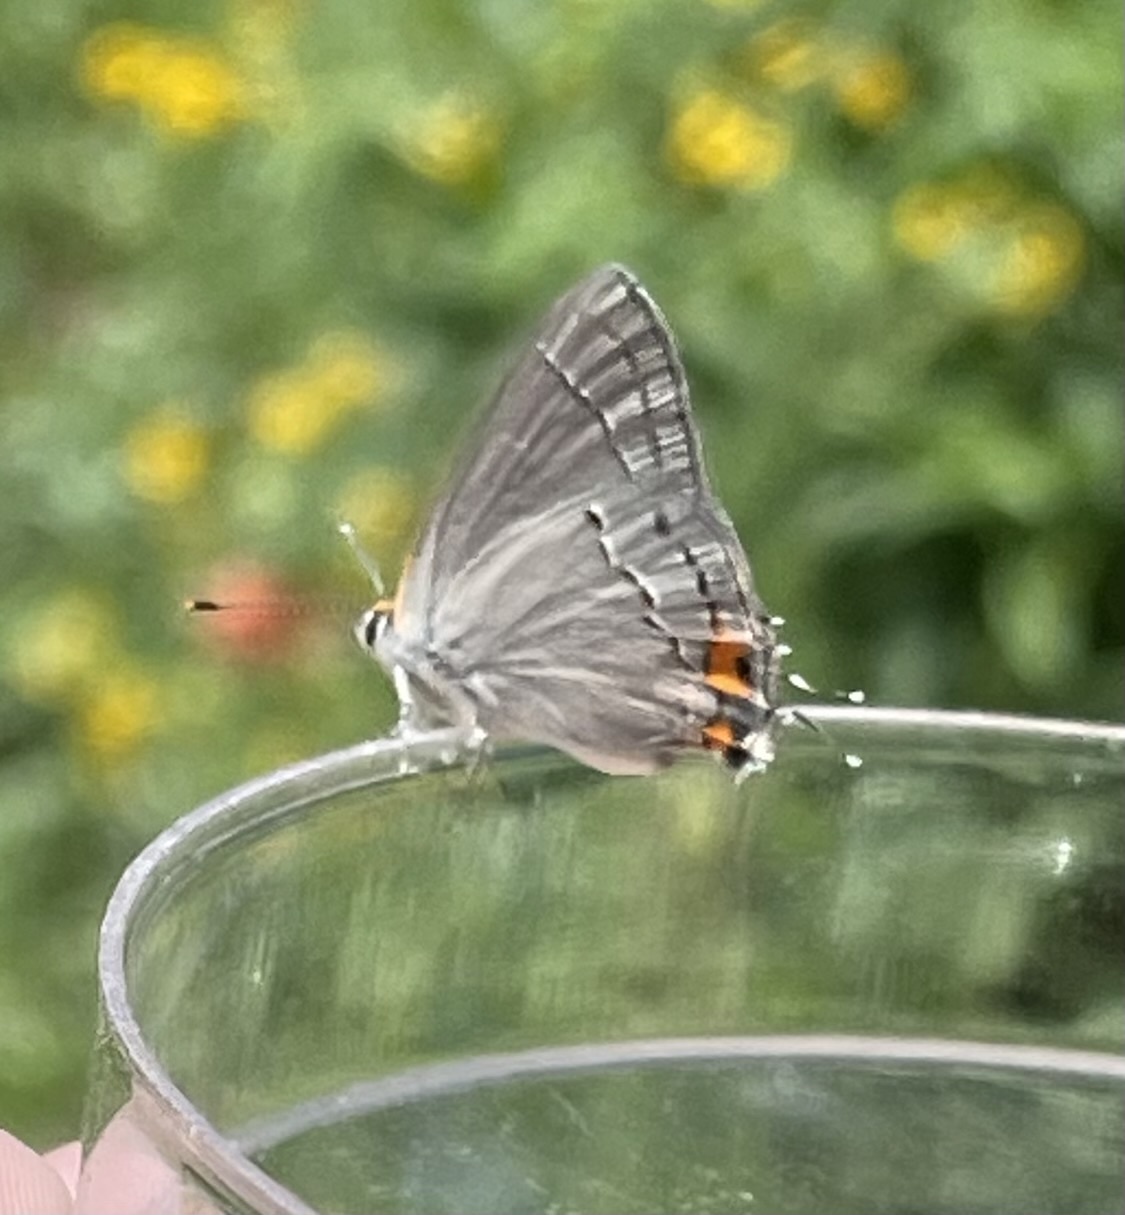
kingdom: Animalia
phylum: Arthropoda
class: Insecta
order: Lepidoptera
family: Lycaenidae
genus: Strymon
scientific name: Strymon melinus
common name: Gray hairstreak
